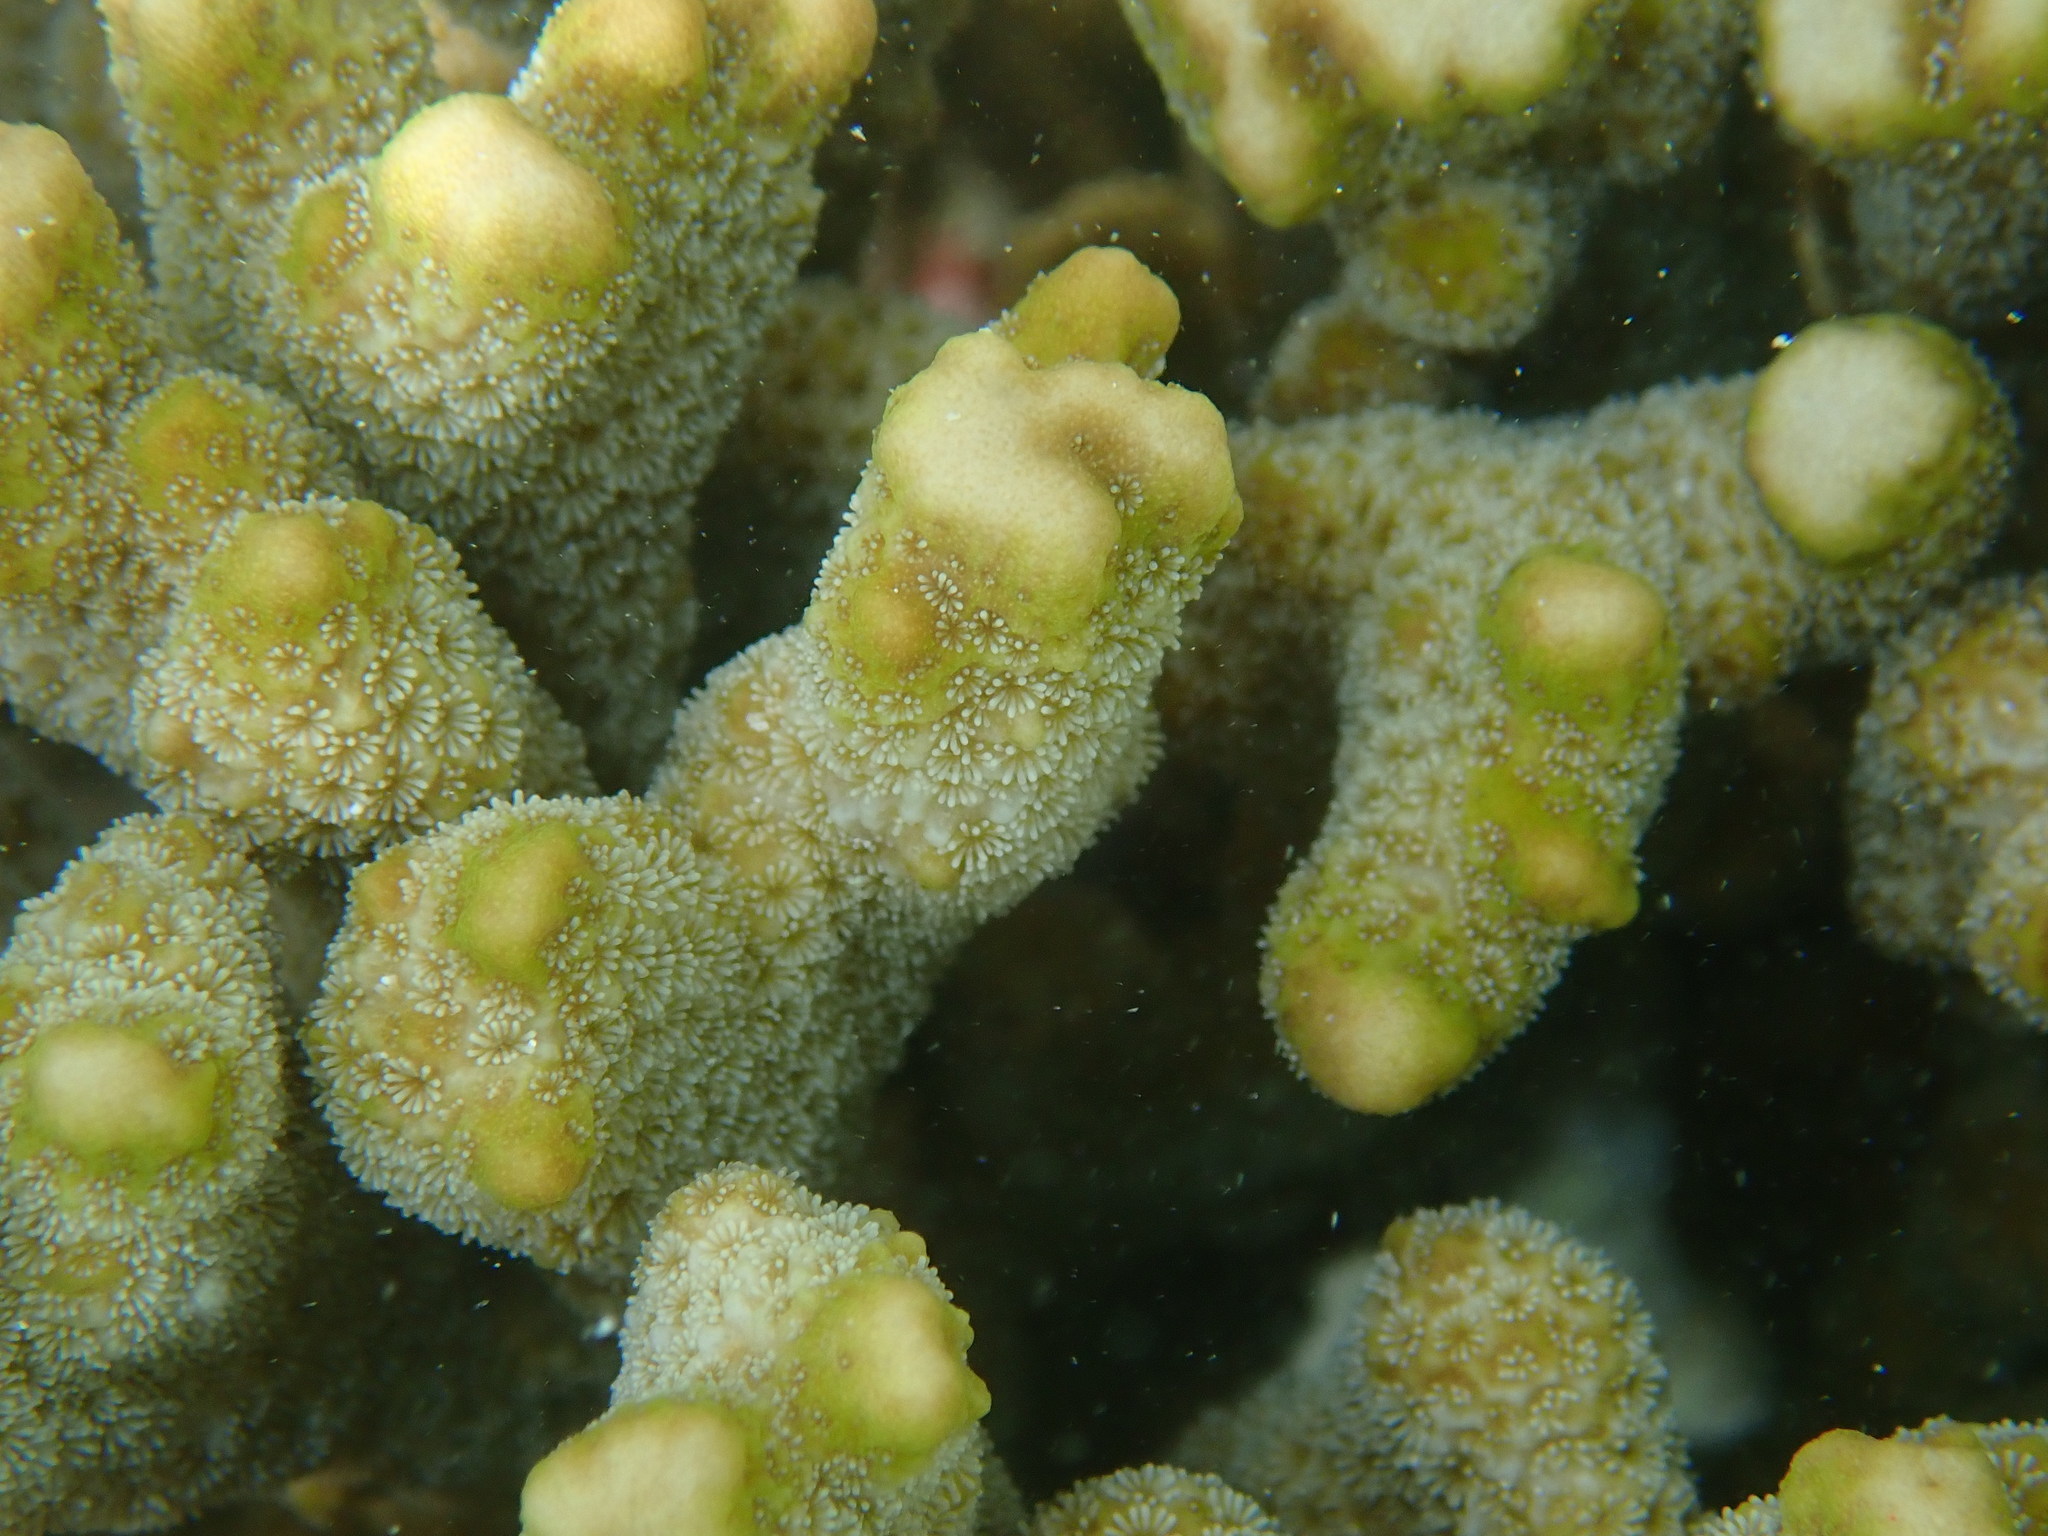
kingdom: Animalia
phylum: Cnidaria
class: Anthozoa
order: Scleractinia
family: Acroporidae
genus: Montipora
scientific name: Montipora digitata
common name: Pore coral
